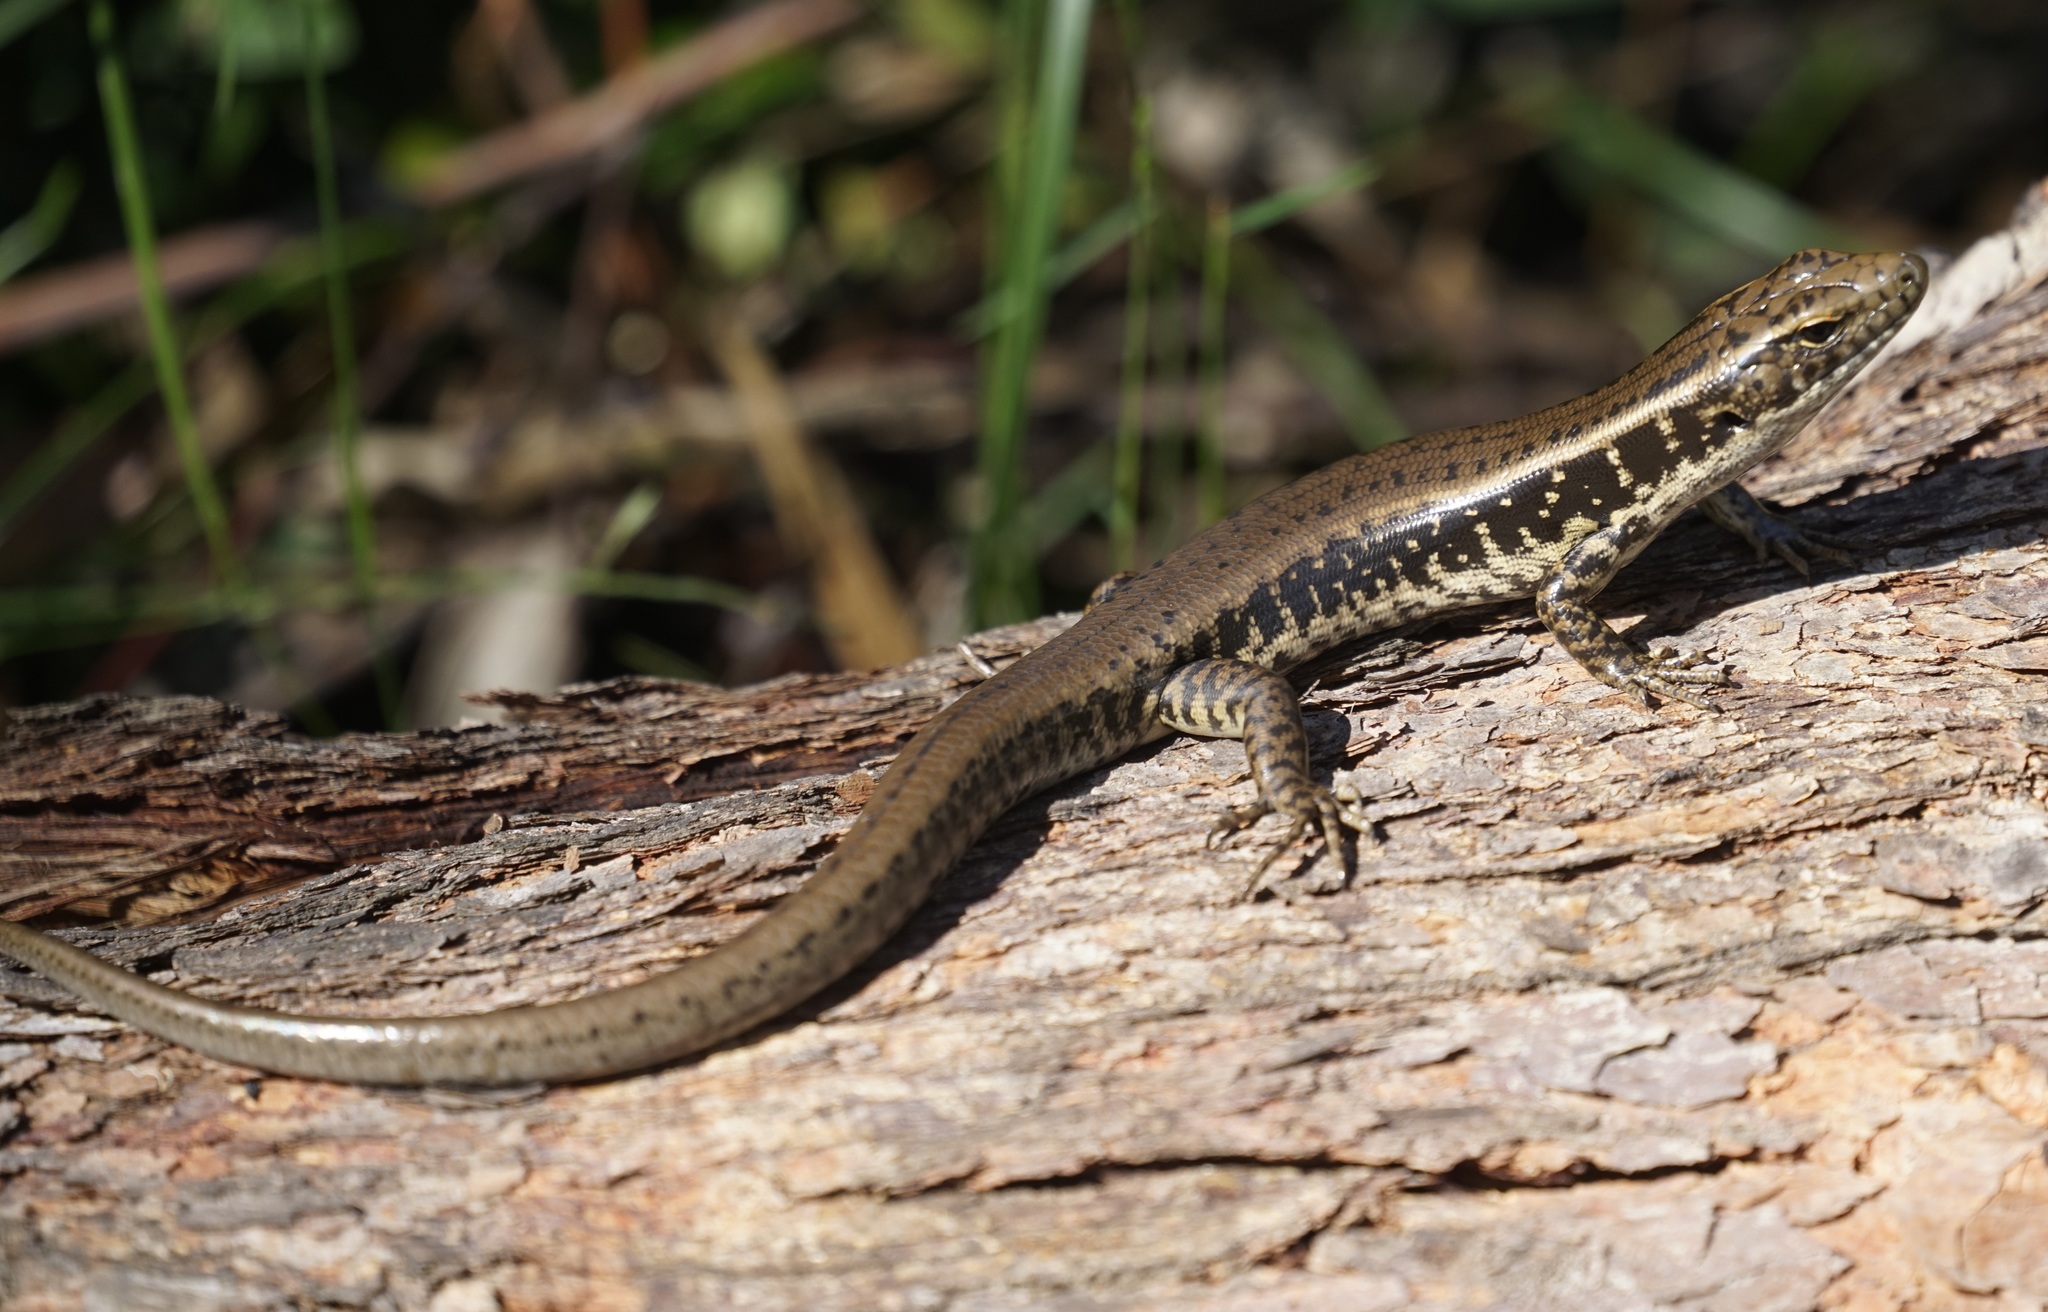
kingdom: Animalia
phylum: Chordata
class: Squamata
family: Scincidae
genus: Eulamprus
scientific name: Eulamprus quoyii
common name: Eastern water skink
